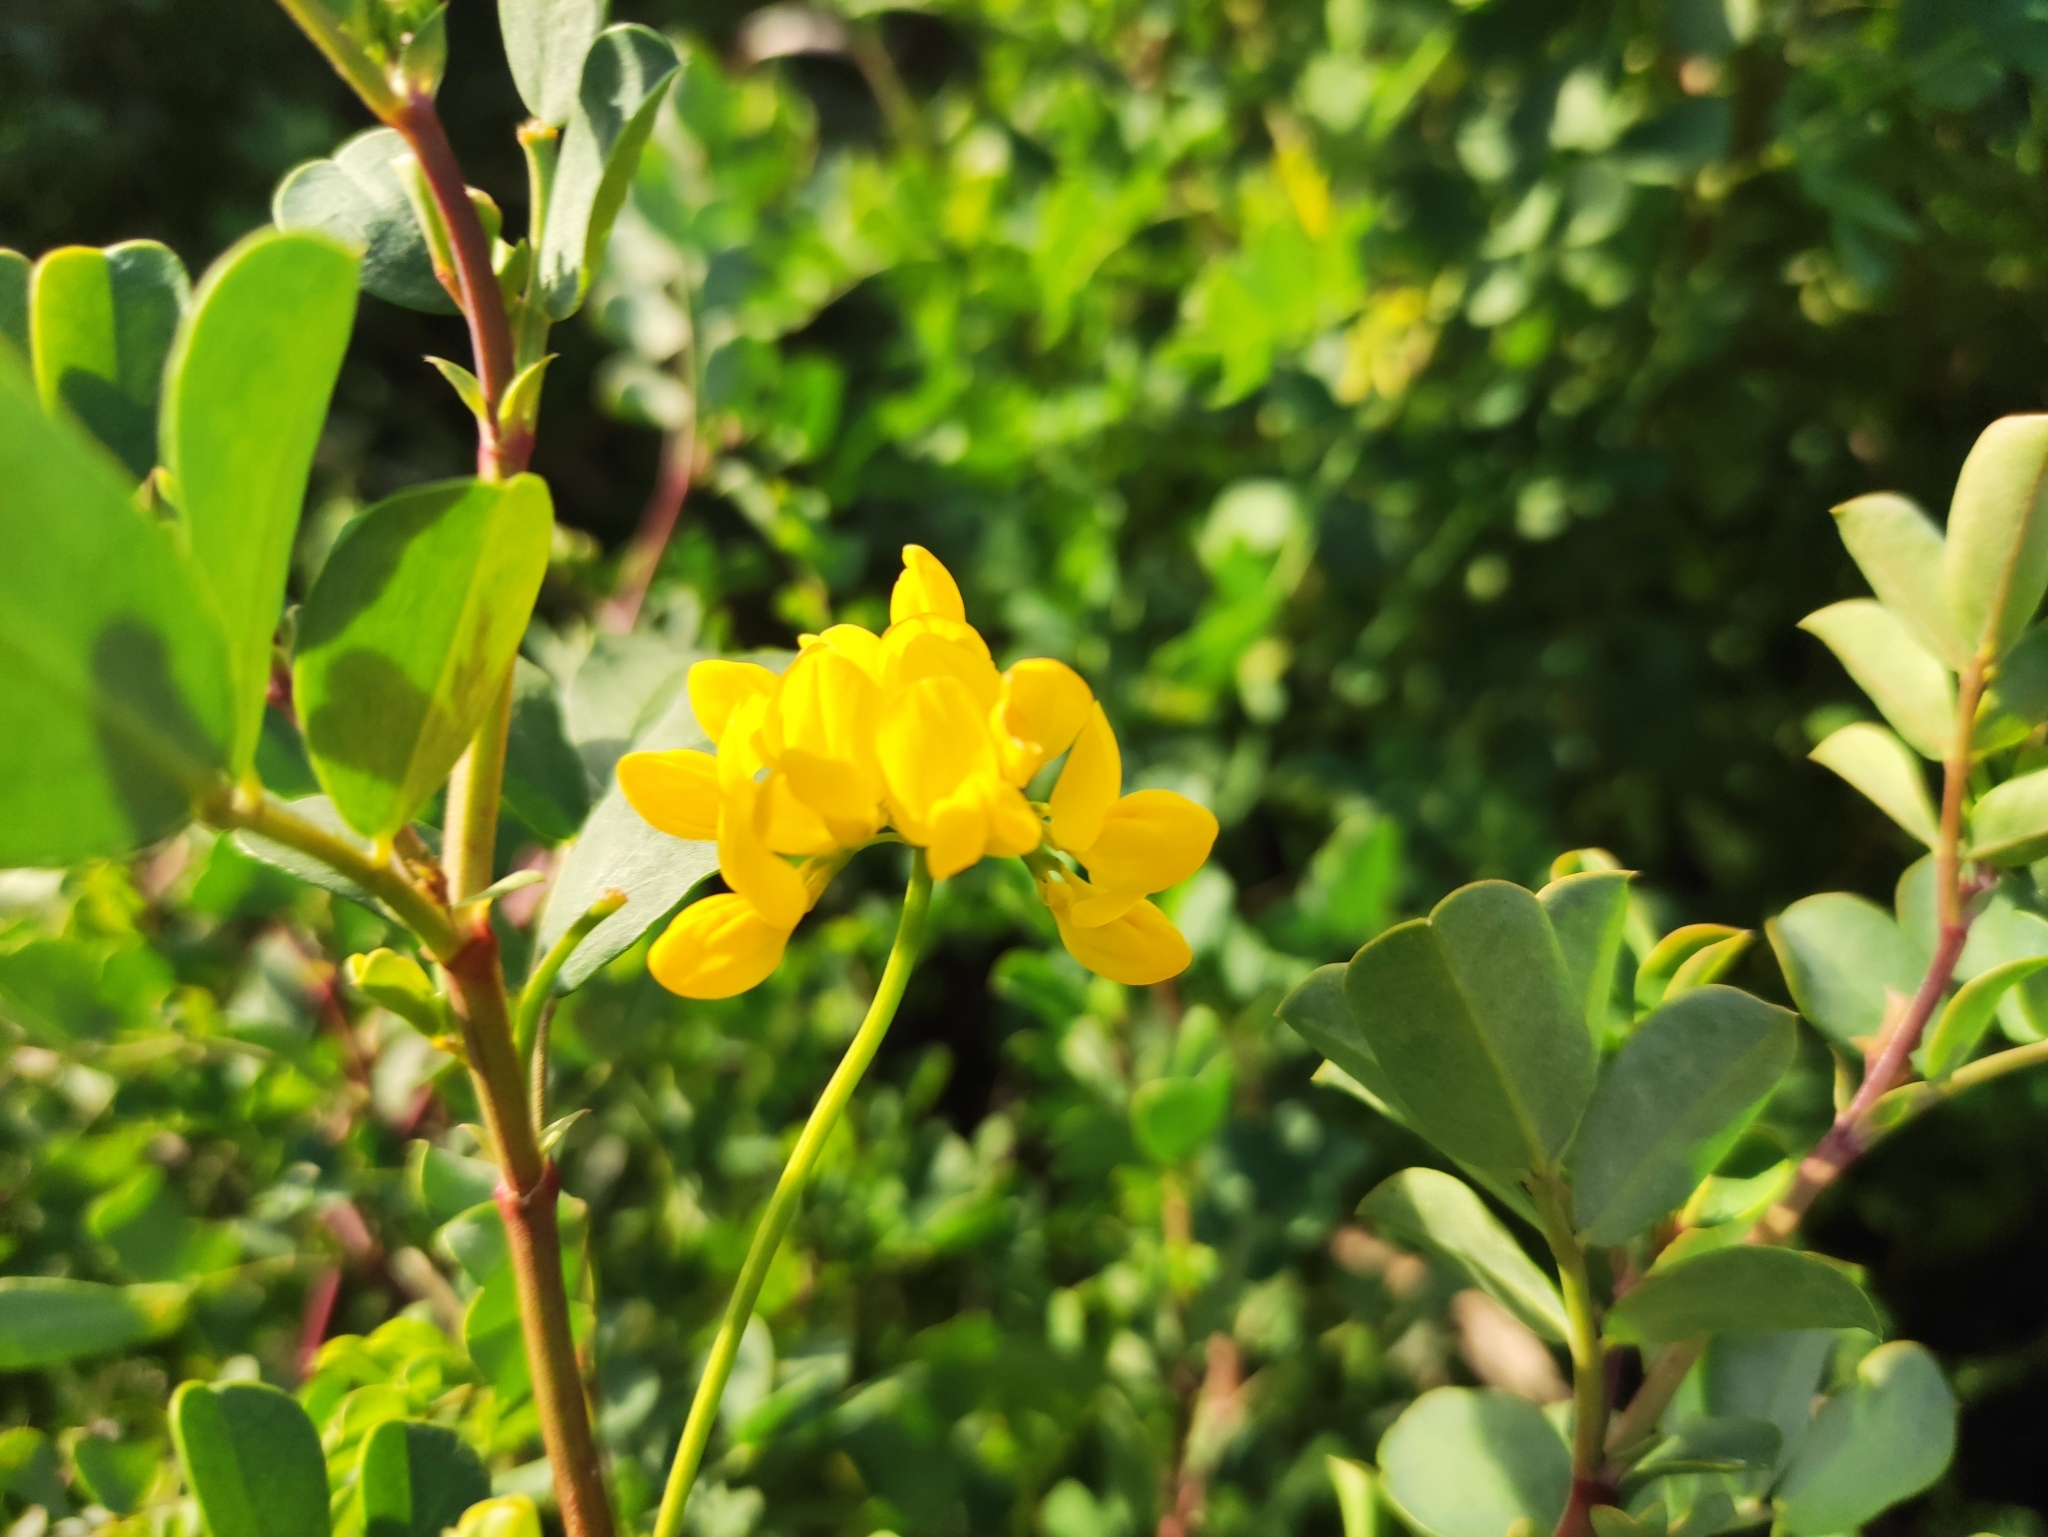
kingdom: Plantae
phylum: Tracheophyta
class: Magnoliopsida
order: Fabales
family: Fabaceae
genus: Coronilla
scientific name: Coronilla valentina
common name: Shrubby scorpion-vetch
